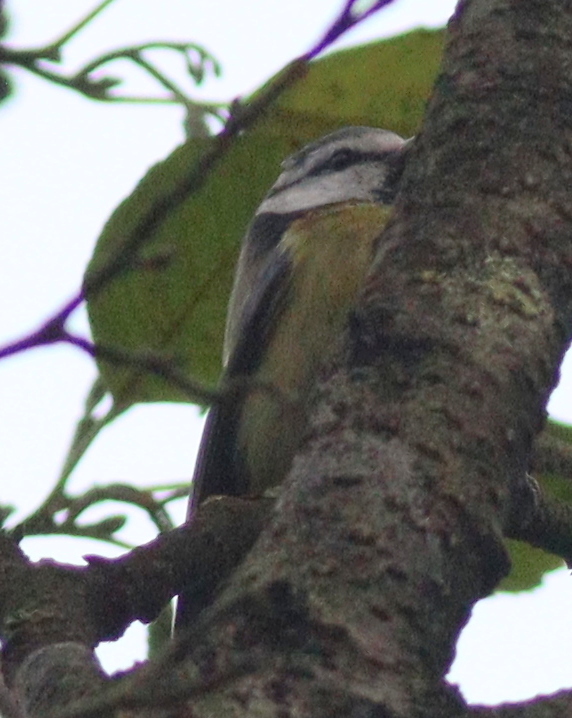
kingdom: Animalia
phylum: Chordata
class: Aves
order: Passeriformes
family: Paridae
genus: Cyanistes
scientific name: Cyanistes caeruleus
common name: Eurasian blue tit
